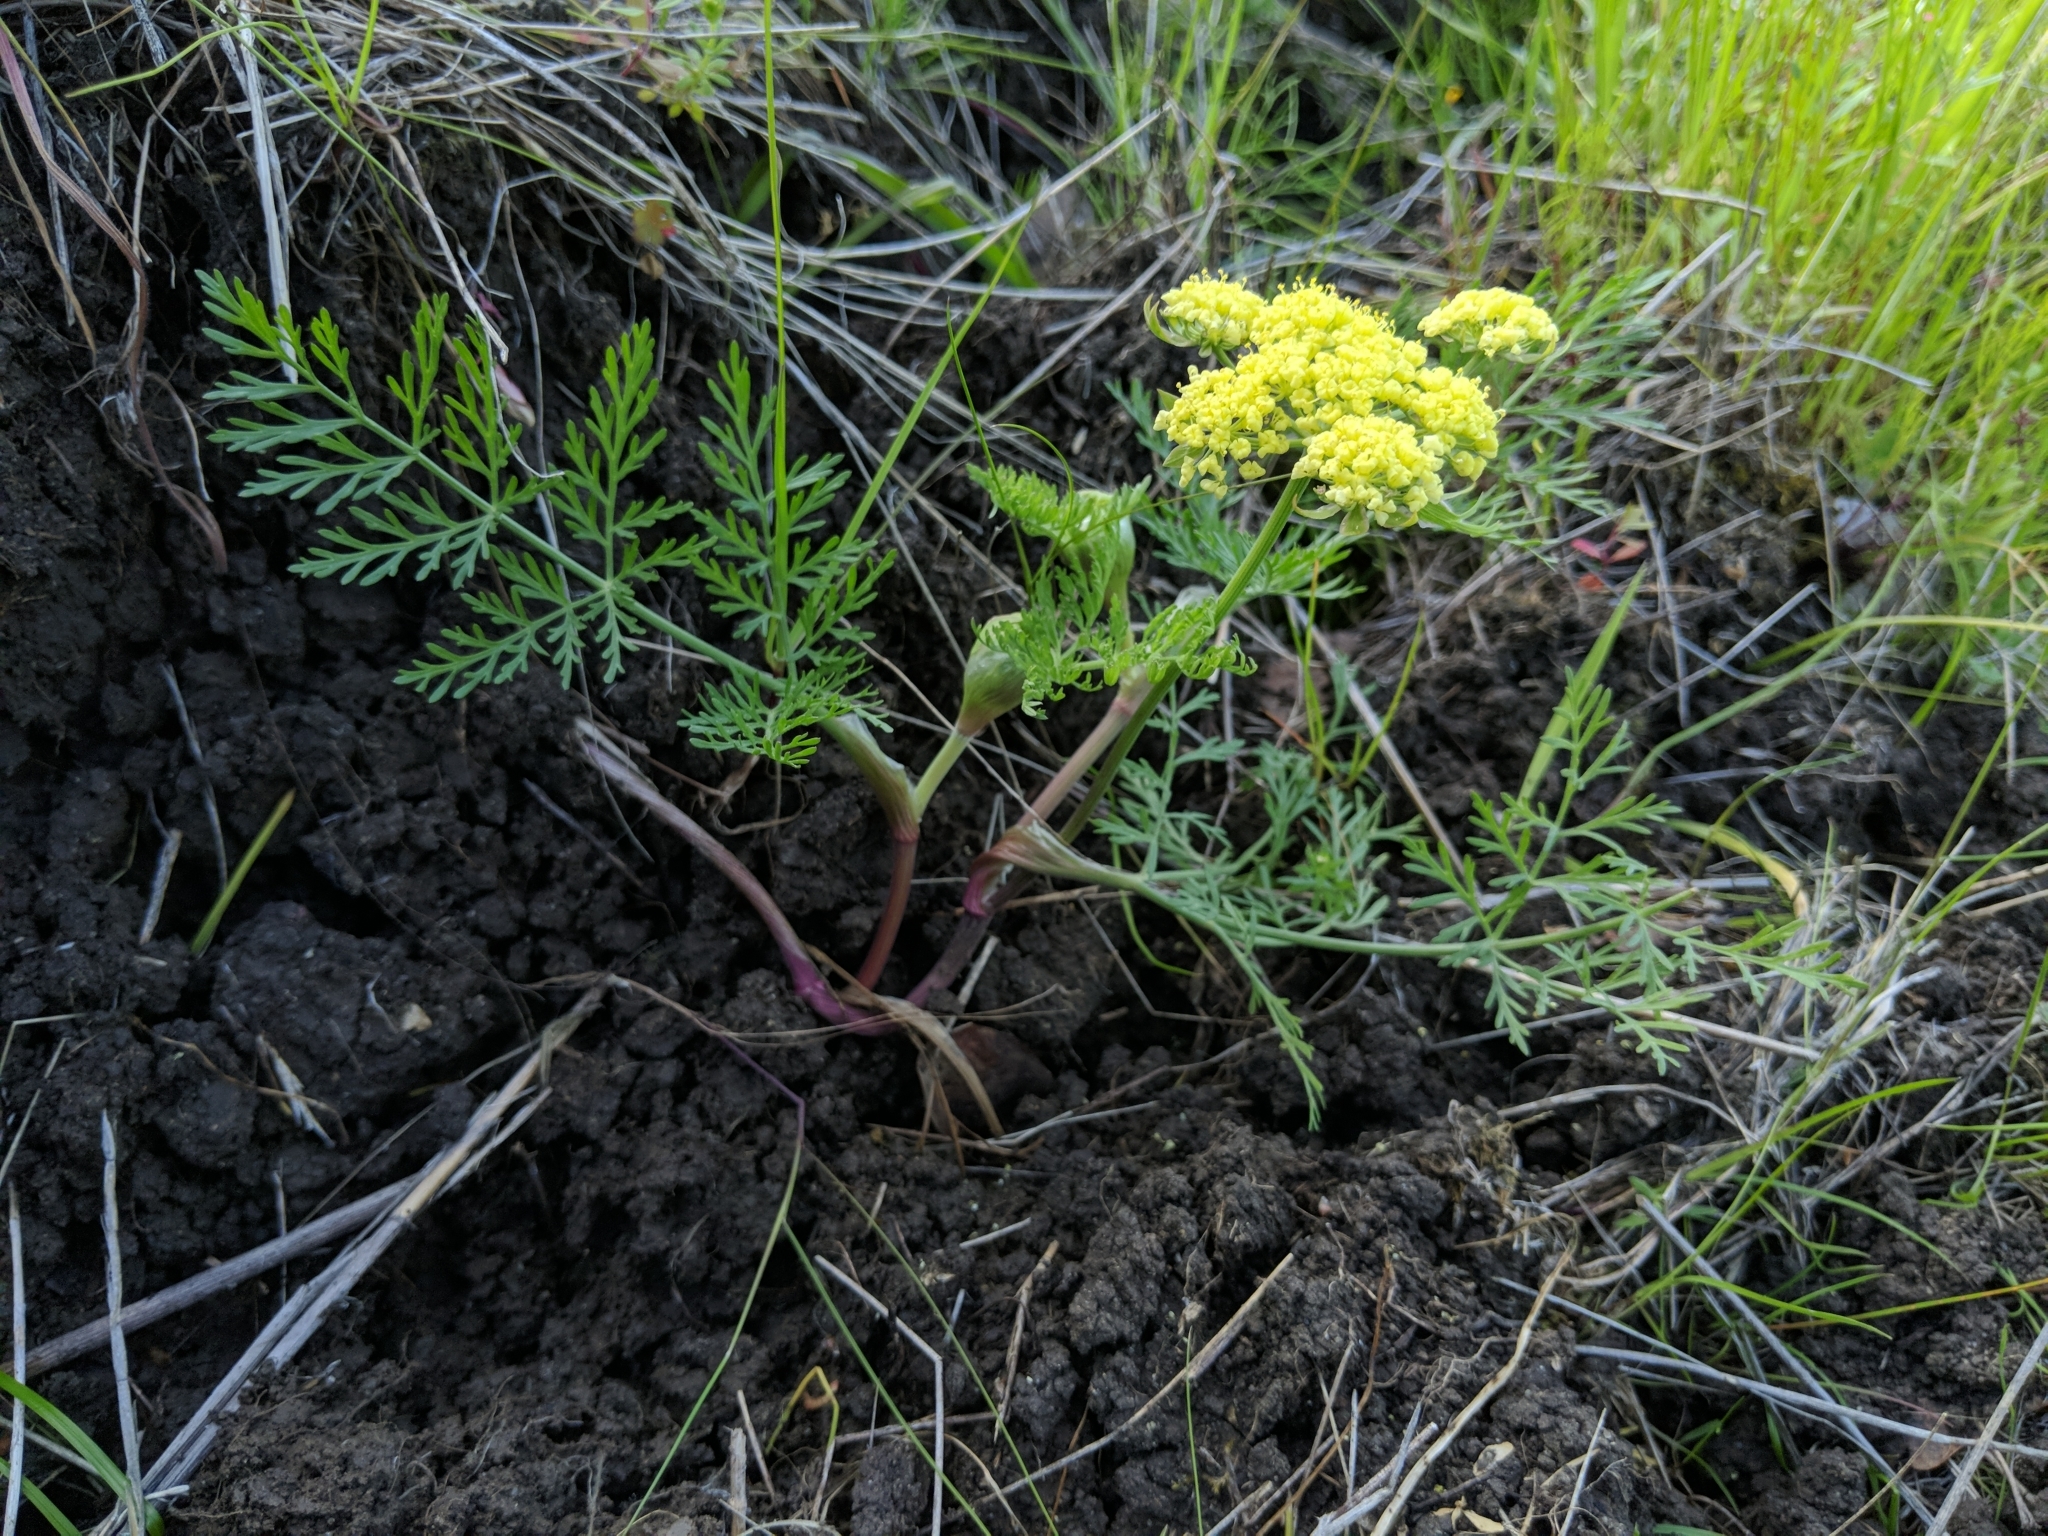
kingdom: Plantae
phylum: Tracheophyta
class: Magnoliopsida
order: Apiales
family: Apiaceae
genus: Lomatium
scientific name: Lomatium utriculatum
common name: Fine-leaf desert-parsley
